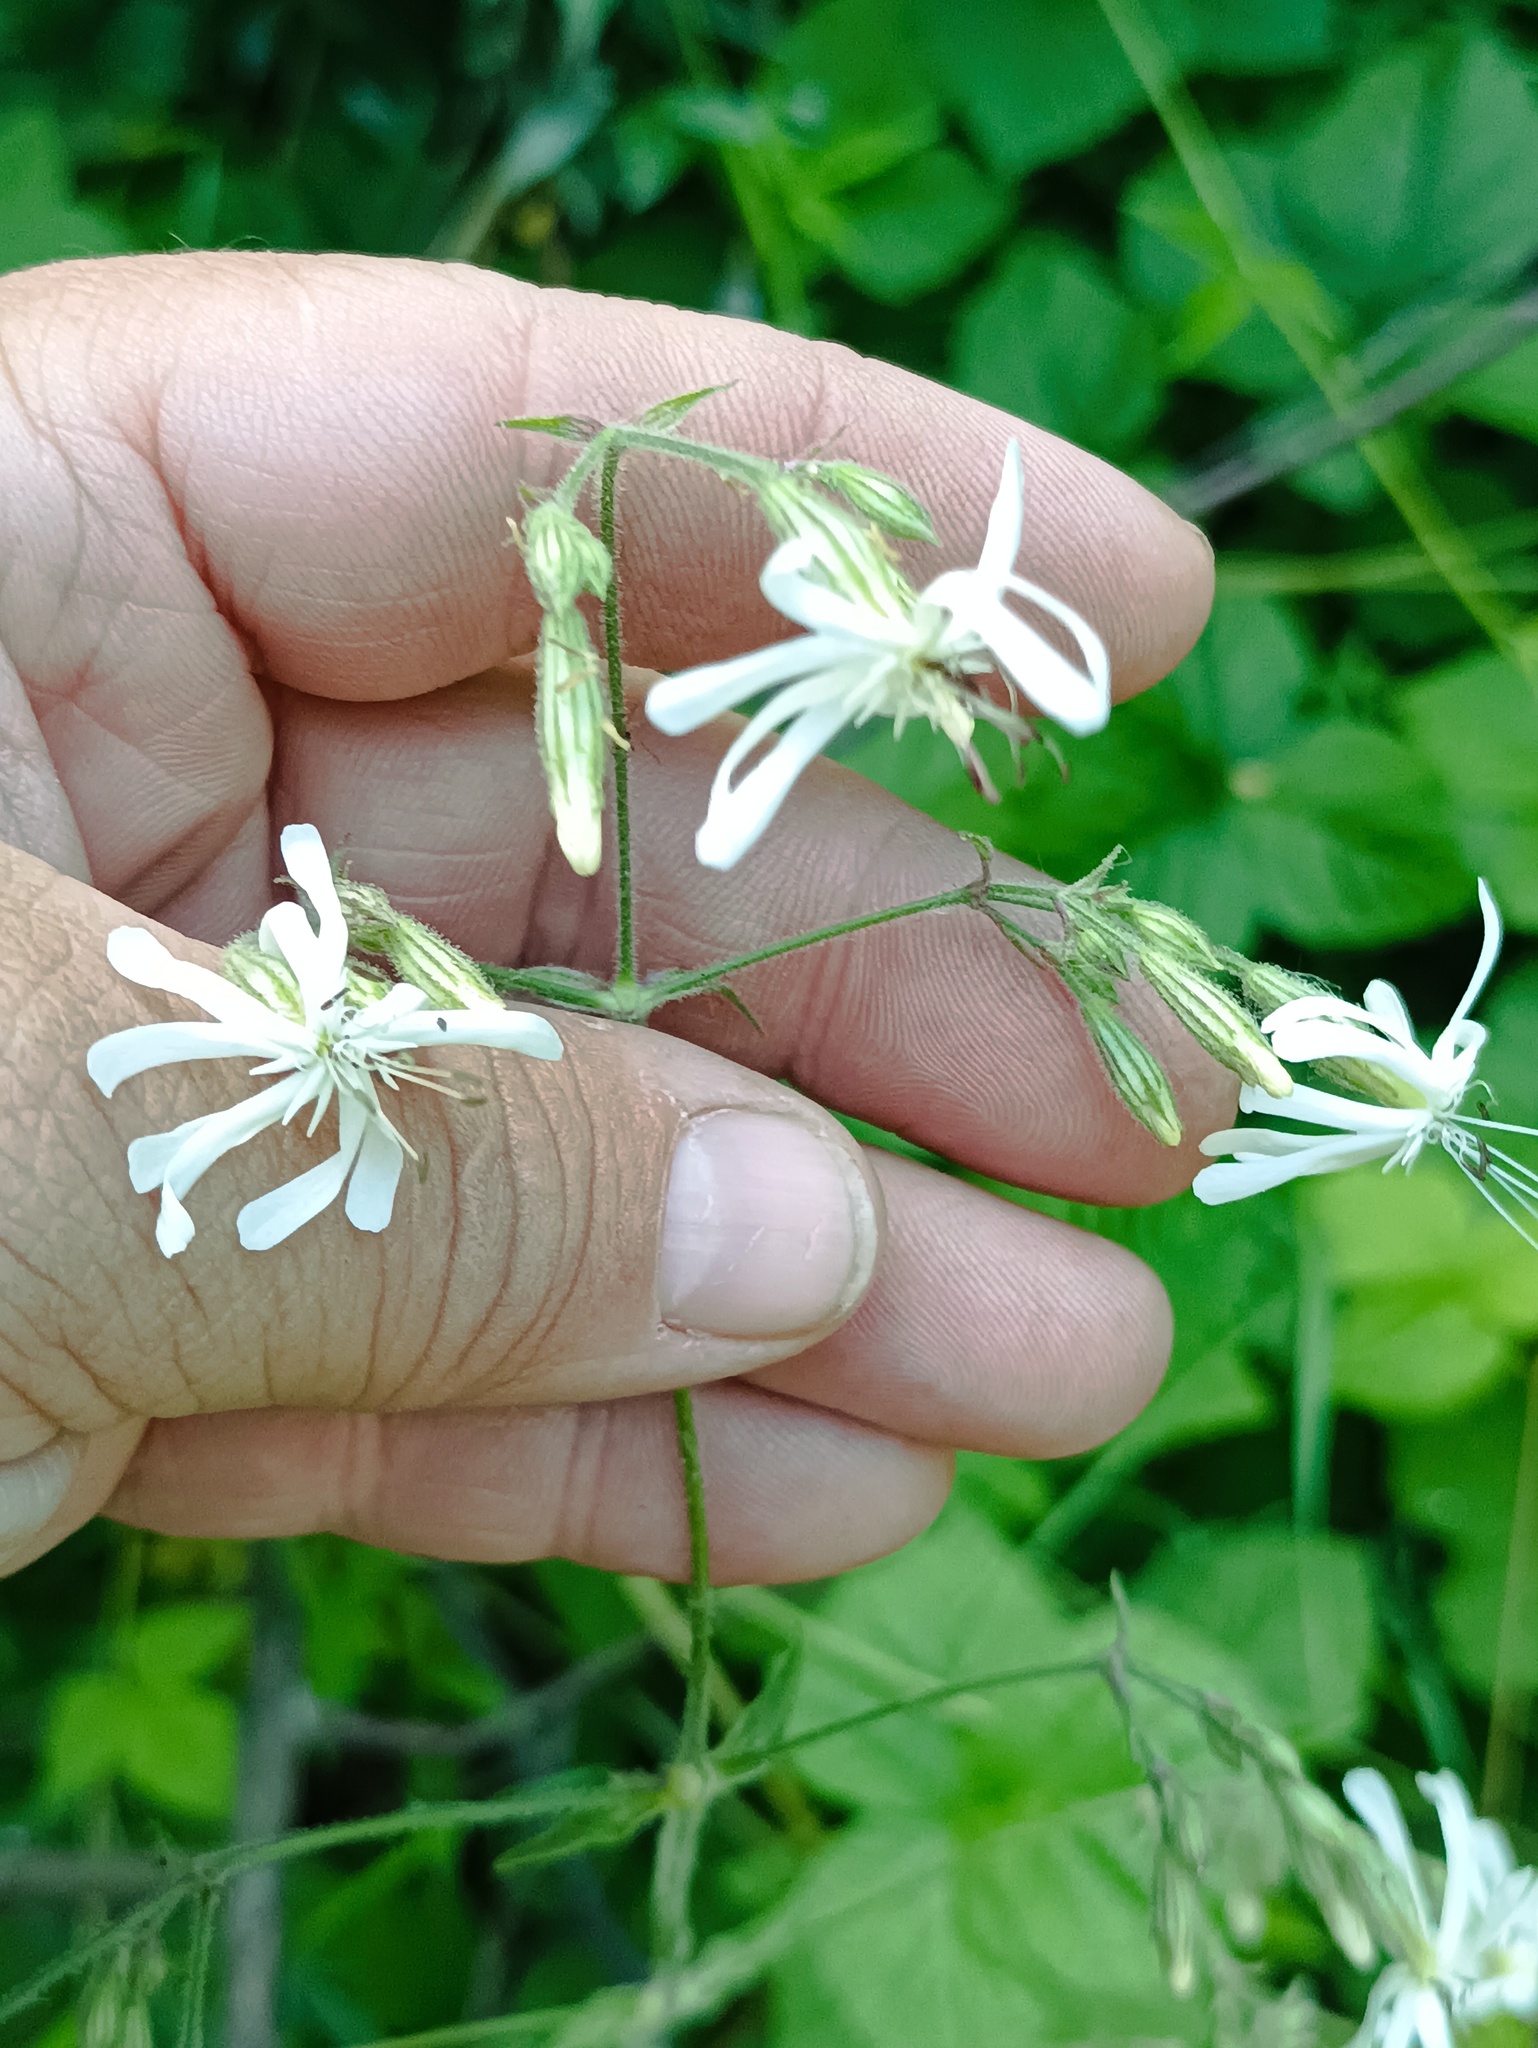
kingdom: Plantae
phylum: Tracheophyta
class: Magnoliopsida
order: Caryophyllales
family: Caryophyllaceae
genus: Silene
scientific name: Silene nutans
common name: Nottingham catchfly
